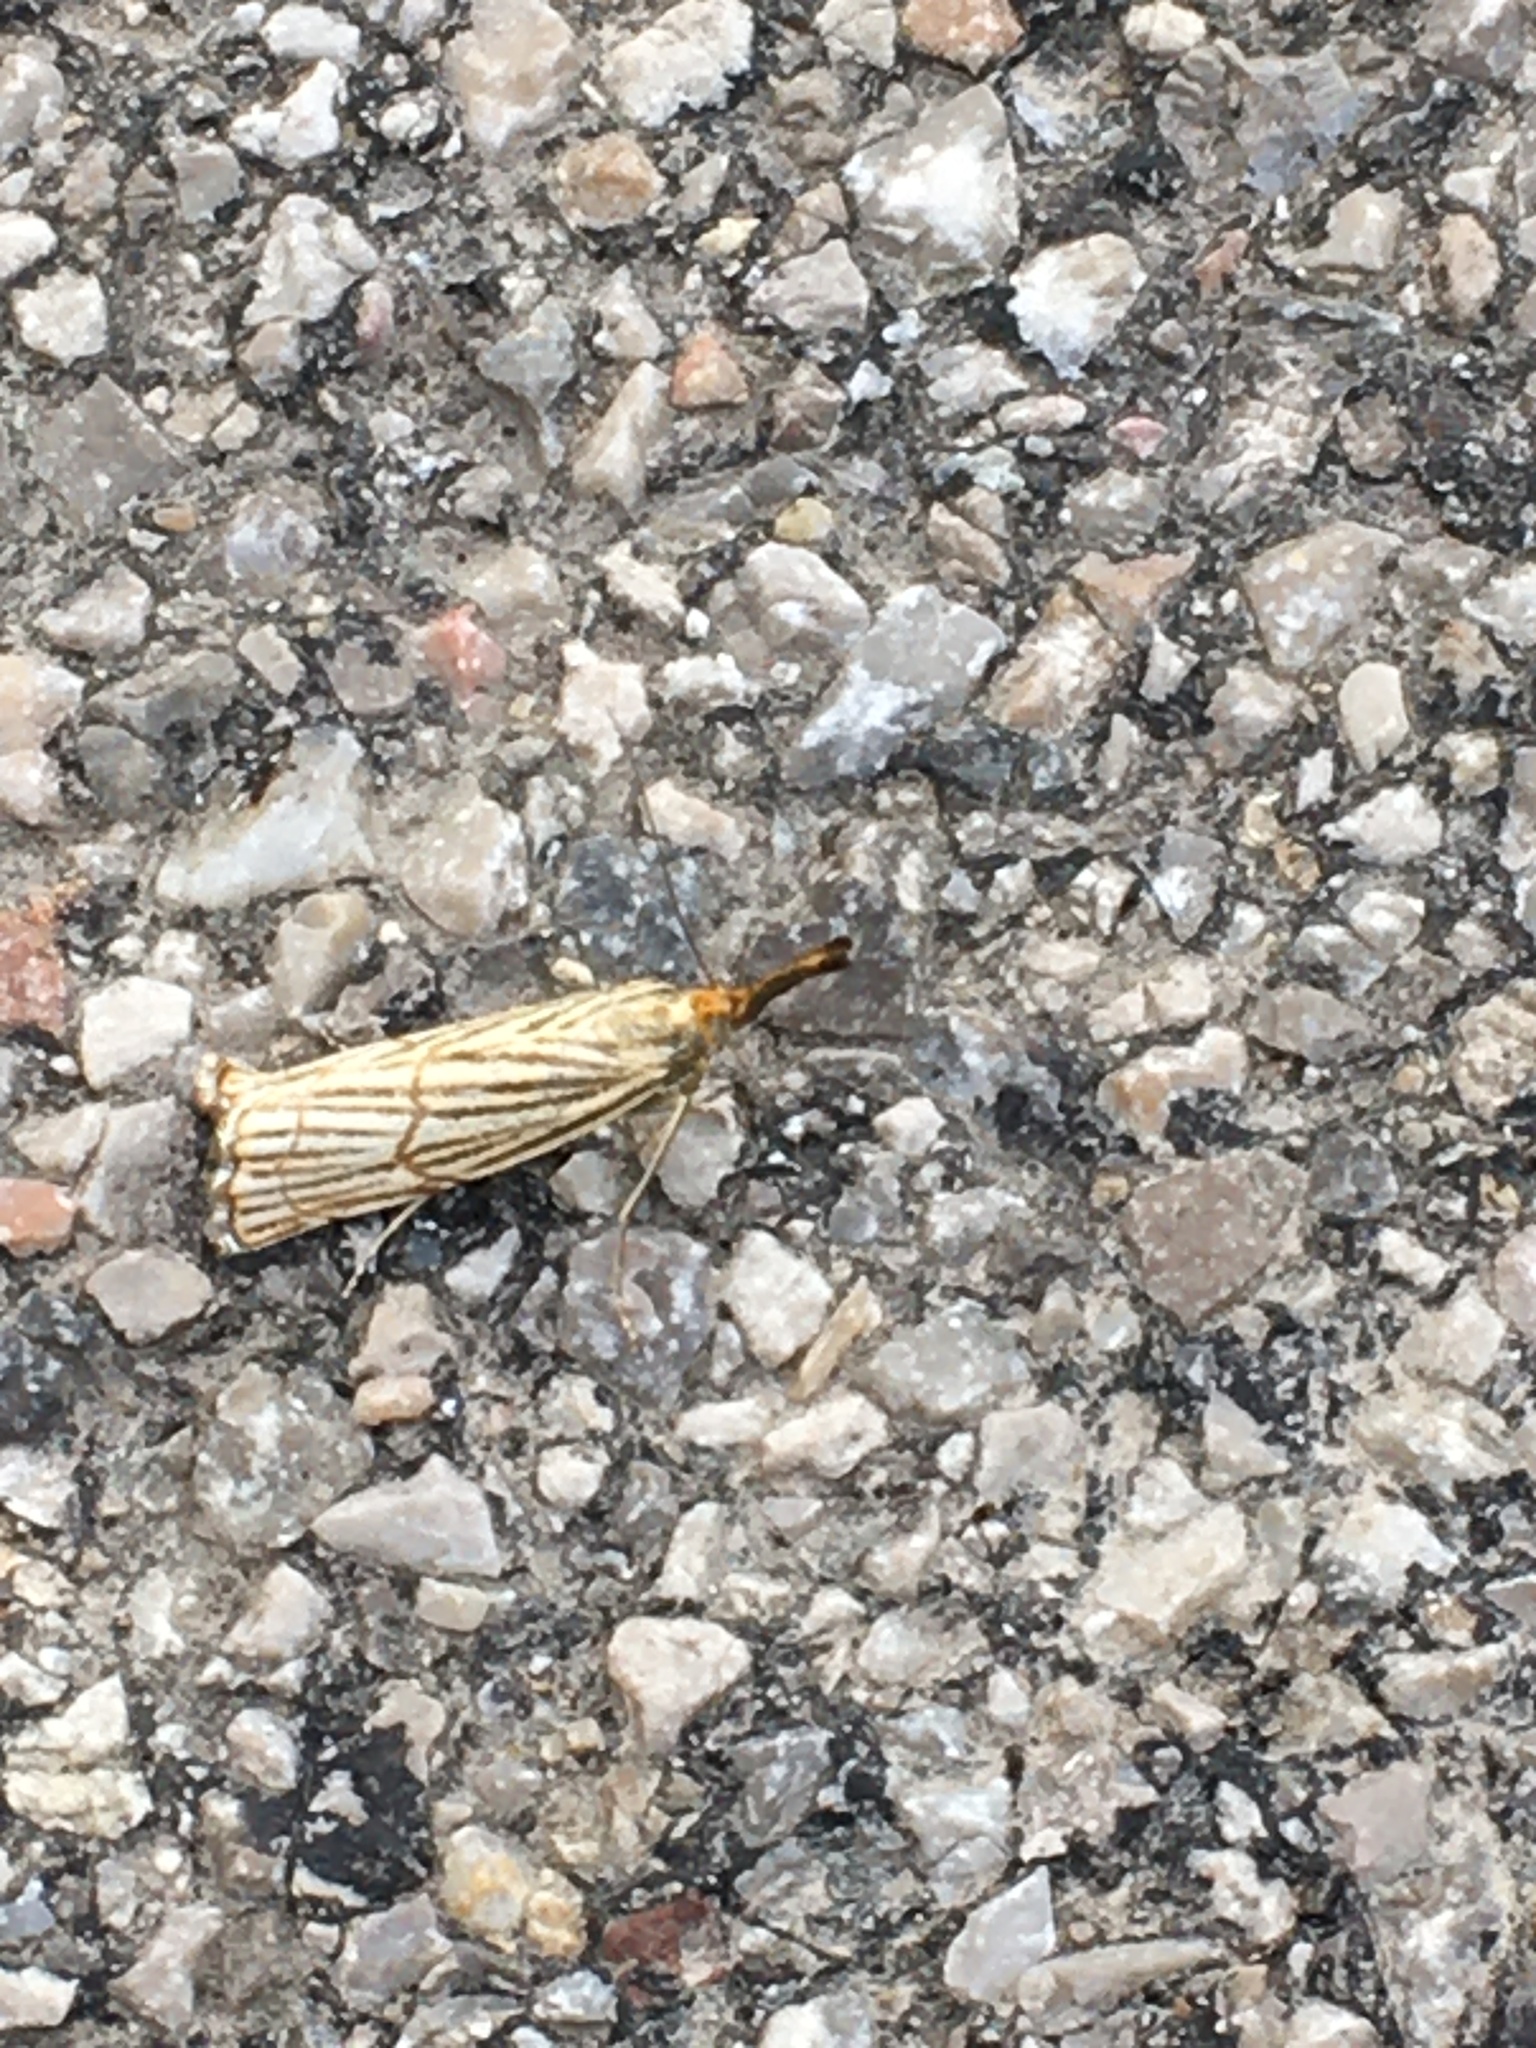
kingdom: Animalia
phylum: Arthropoda
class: Insecta
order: Lepidoptera
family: Crambidae
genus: Chrysocrambus
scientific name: Chrysocrambus linetella
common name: Orange-bar grass-veneer
